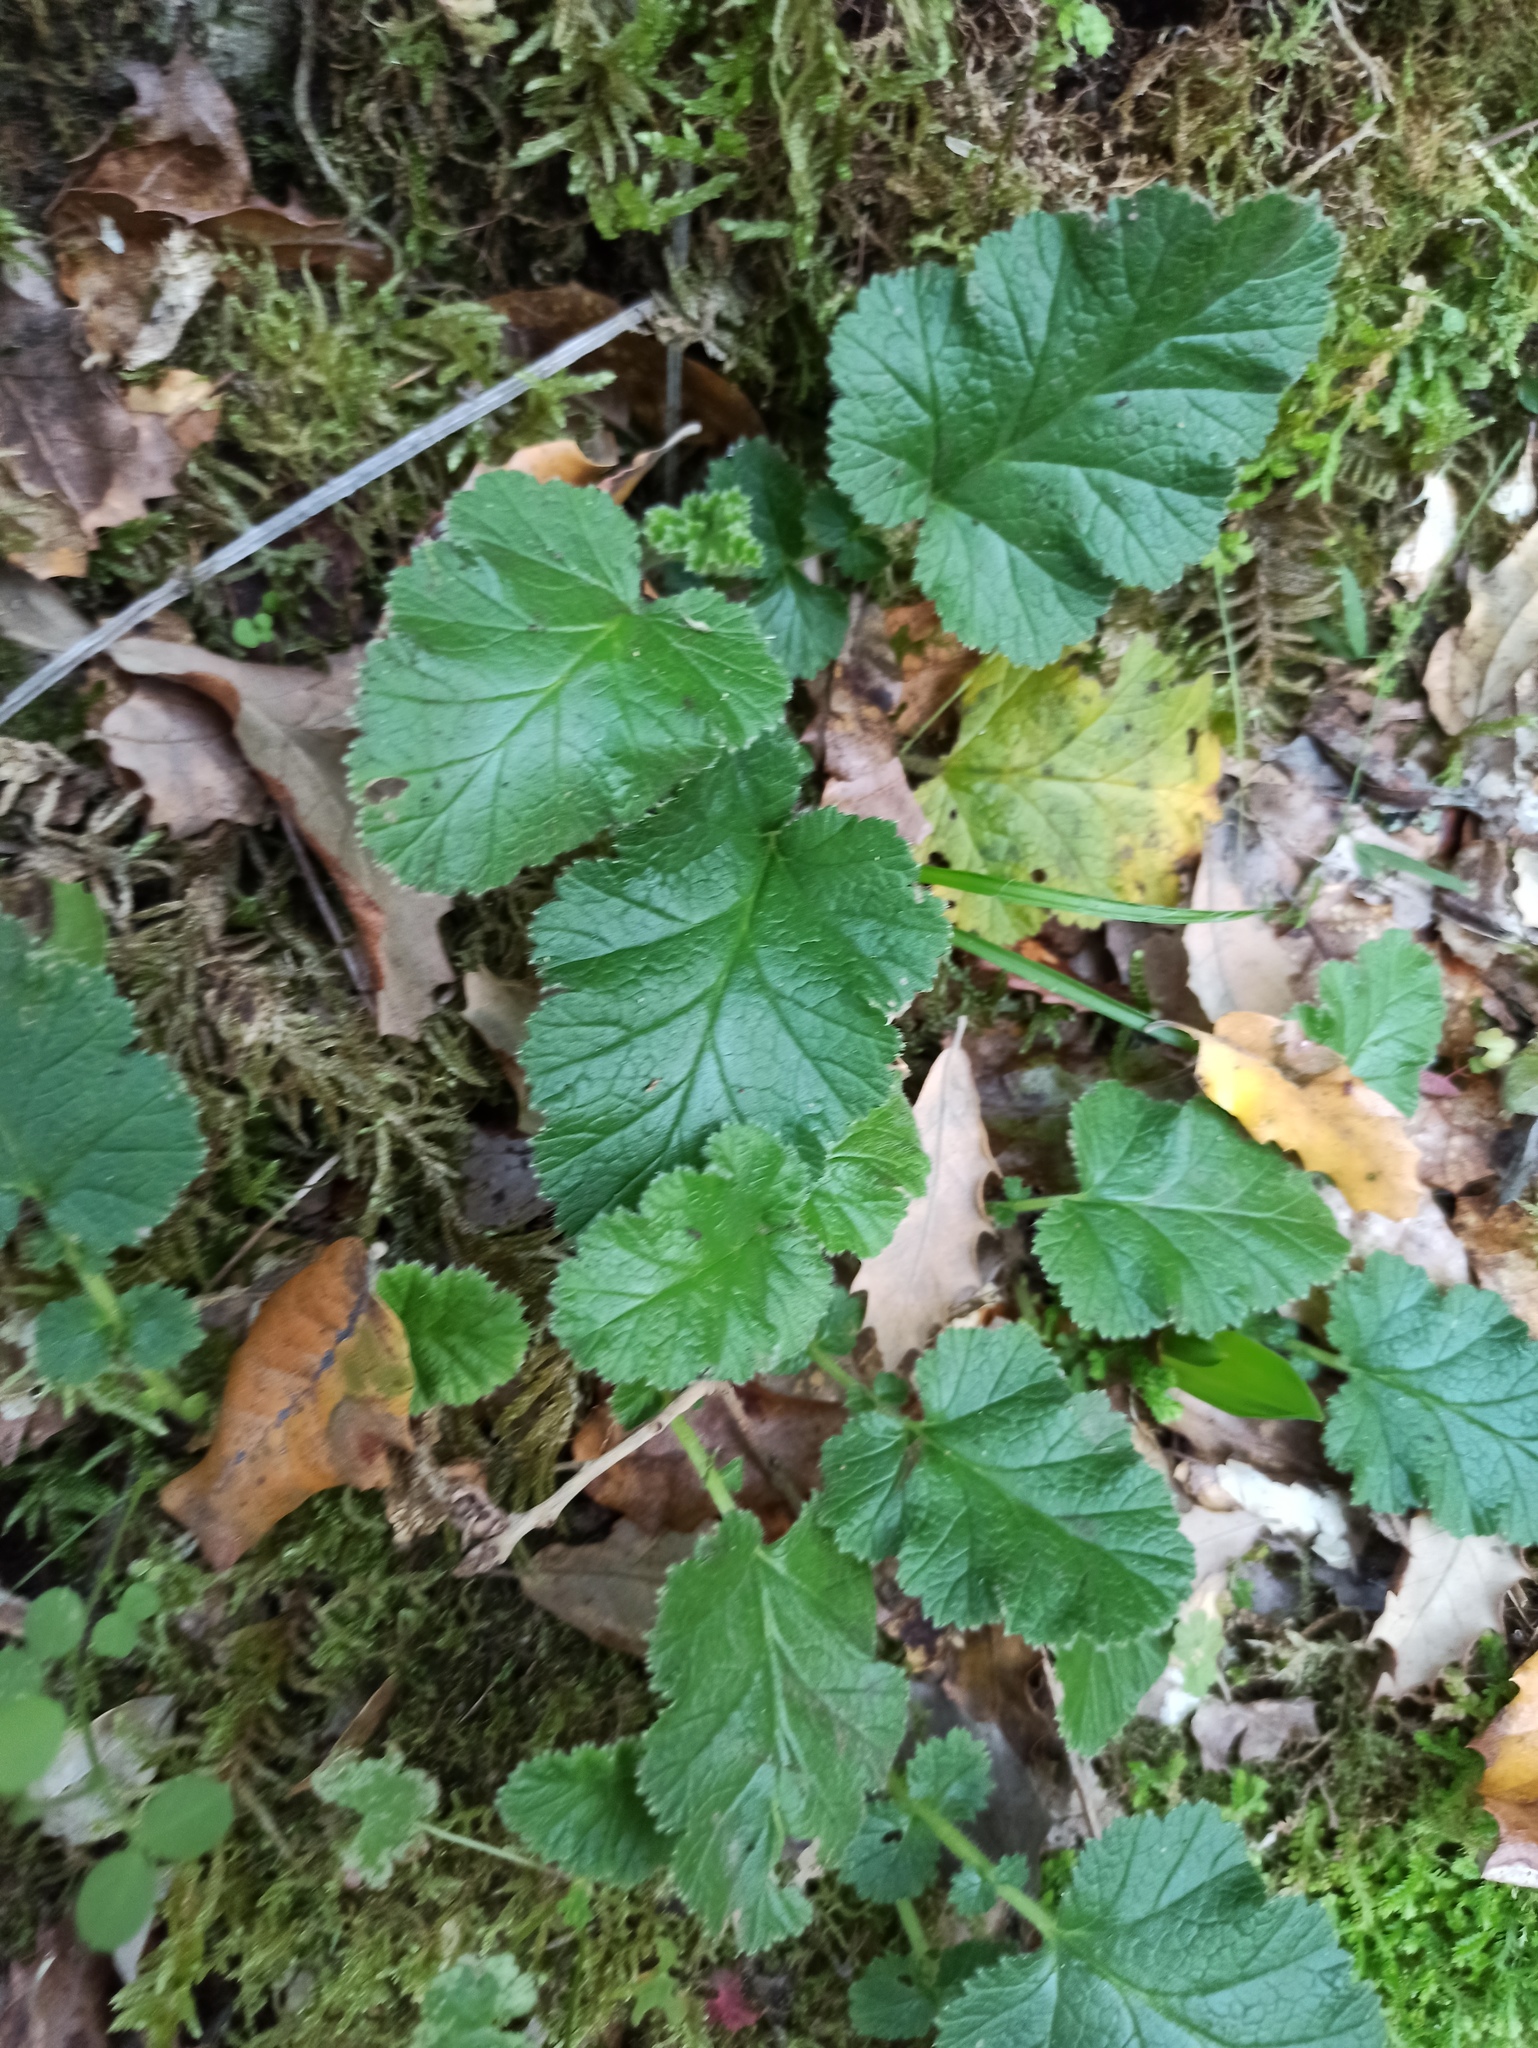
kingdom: Plantae
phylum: Tracheophyta
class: Magnoliopsida
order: Rosales
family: Rosaceae
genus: Geum
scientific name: Geum sylvaticum
